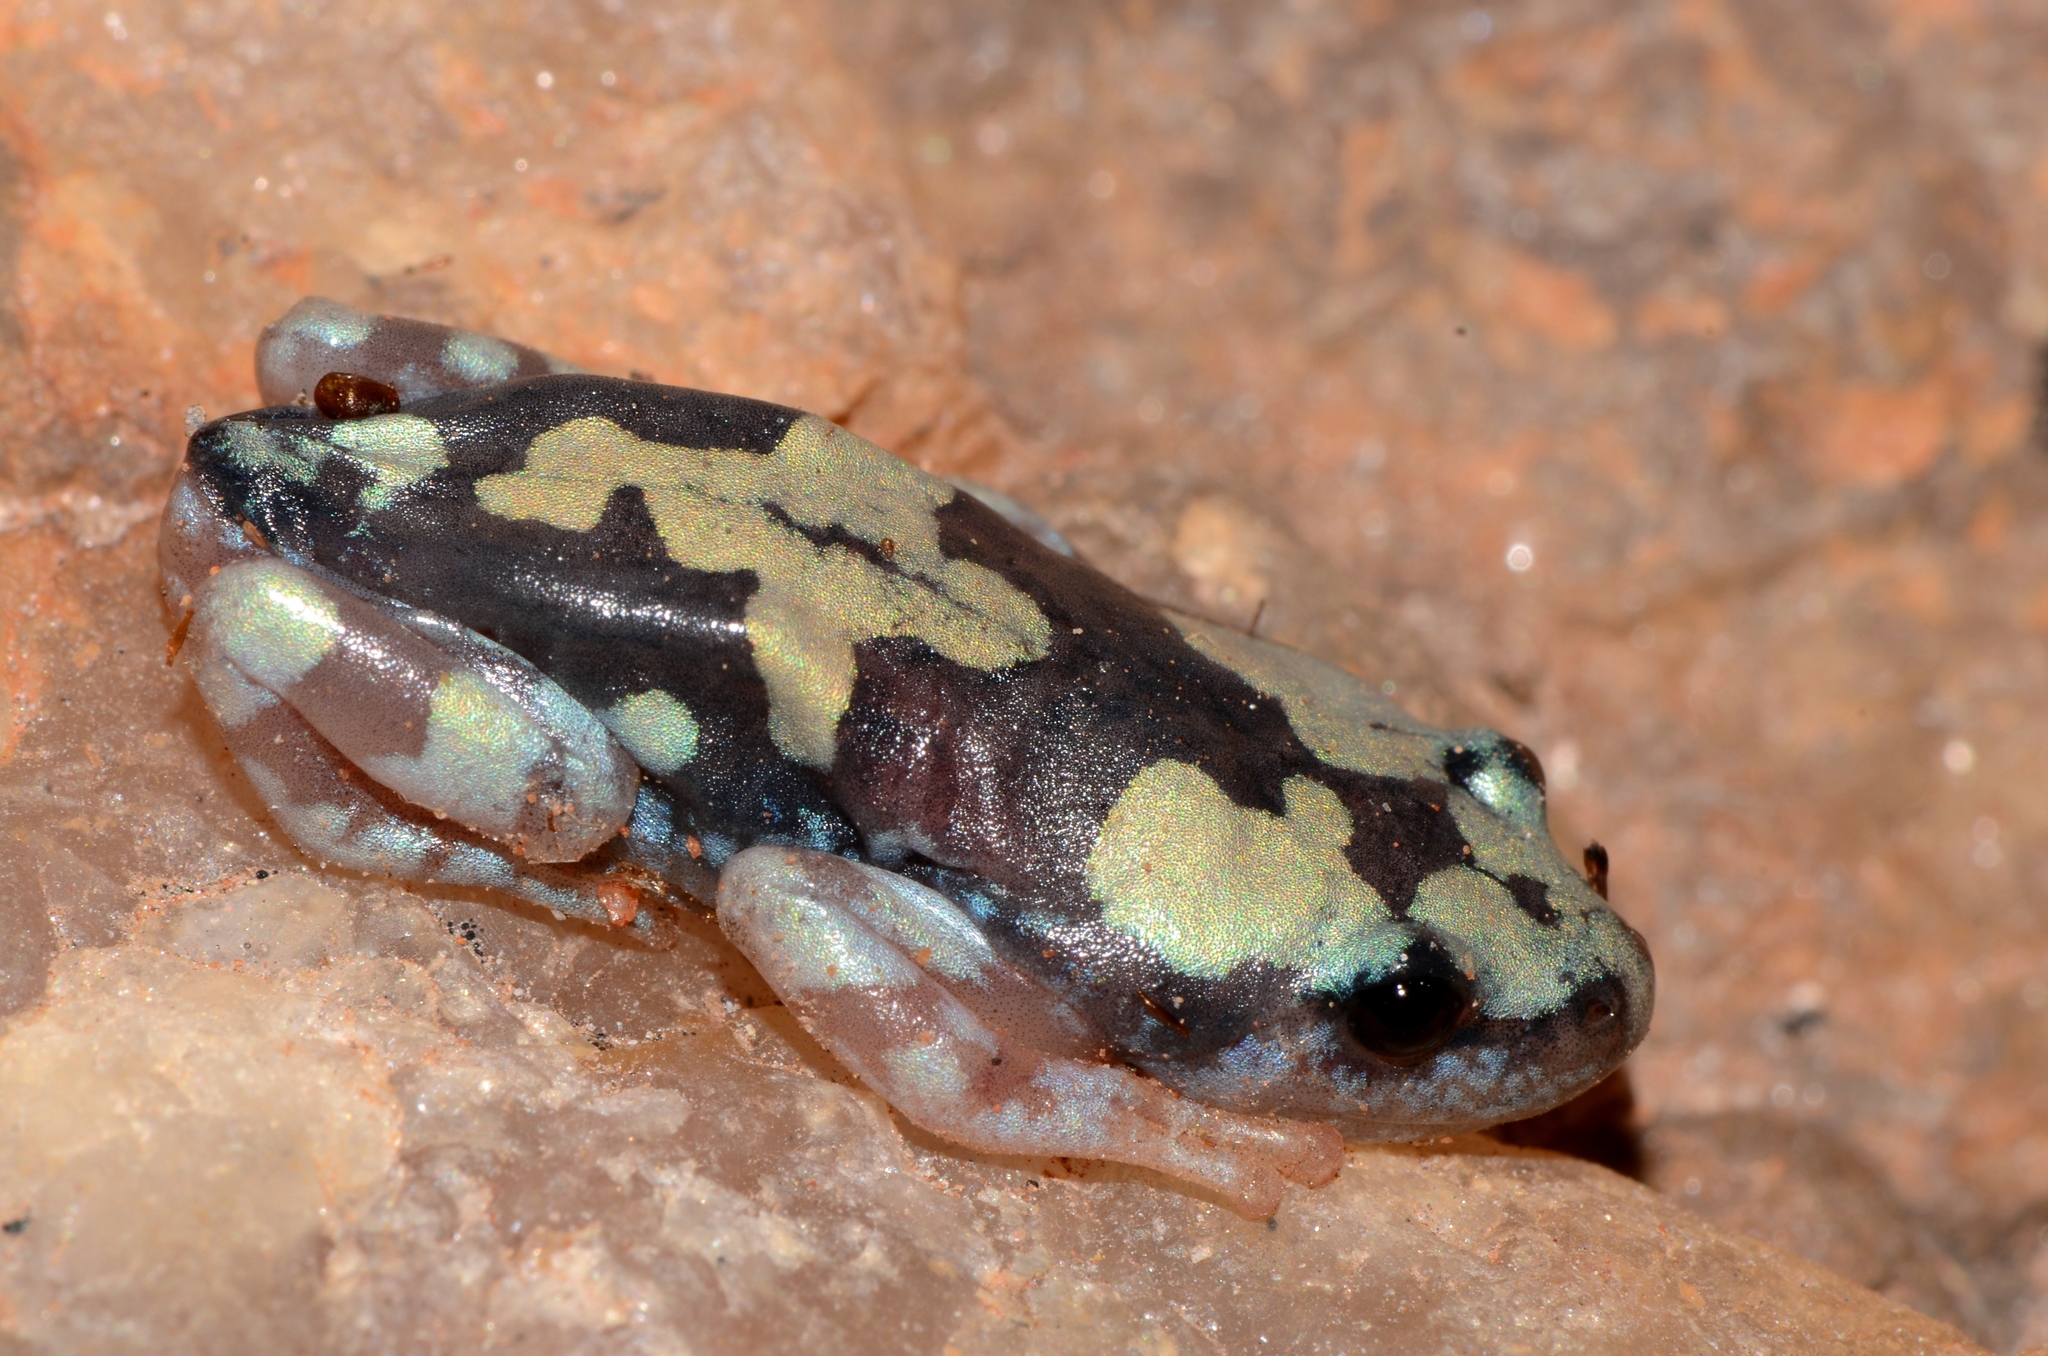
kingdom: Animalia
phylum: Chordata
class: Amphibia
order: Anura
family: Microhylidae
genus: Phrynomantis
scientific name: Phrynomantis annectens
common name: Marbled rubber frog
